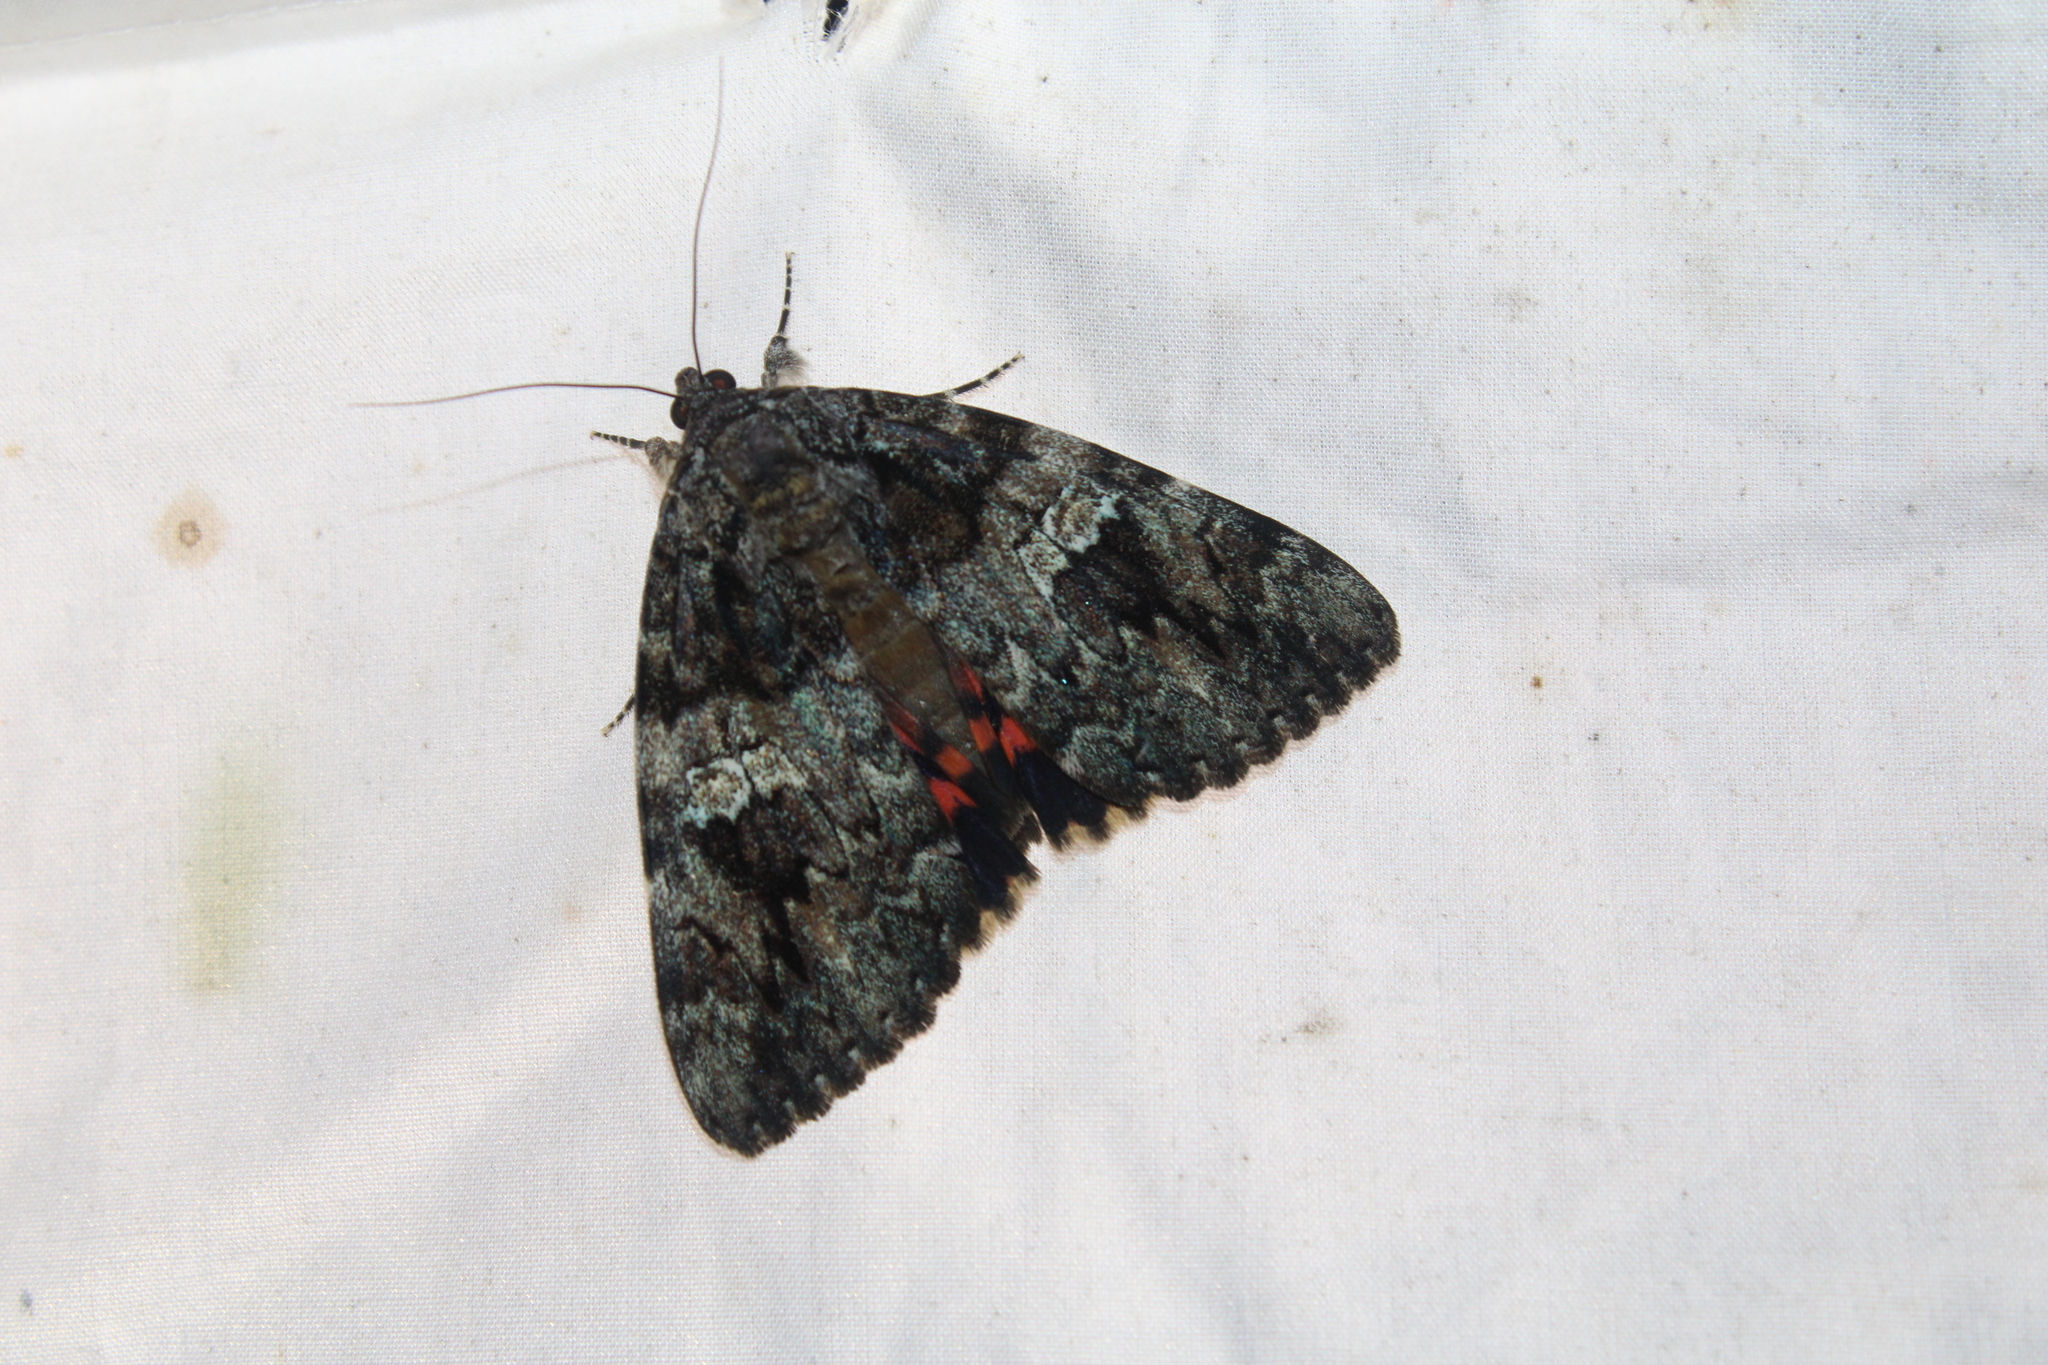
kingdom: Animalia
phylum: Arthropoda
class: Insecta
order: Lepidoptera
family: Erebidae
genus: Catocala
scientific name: Catocala ilia
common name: Ilia underwing
